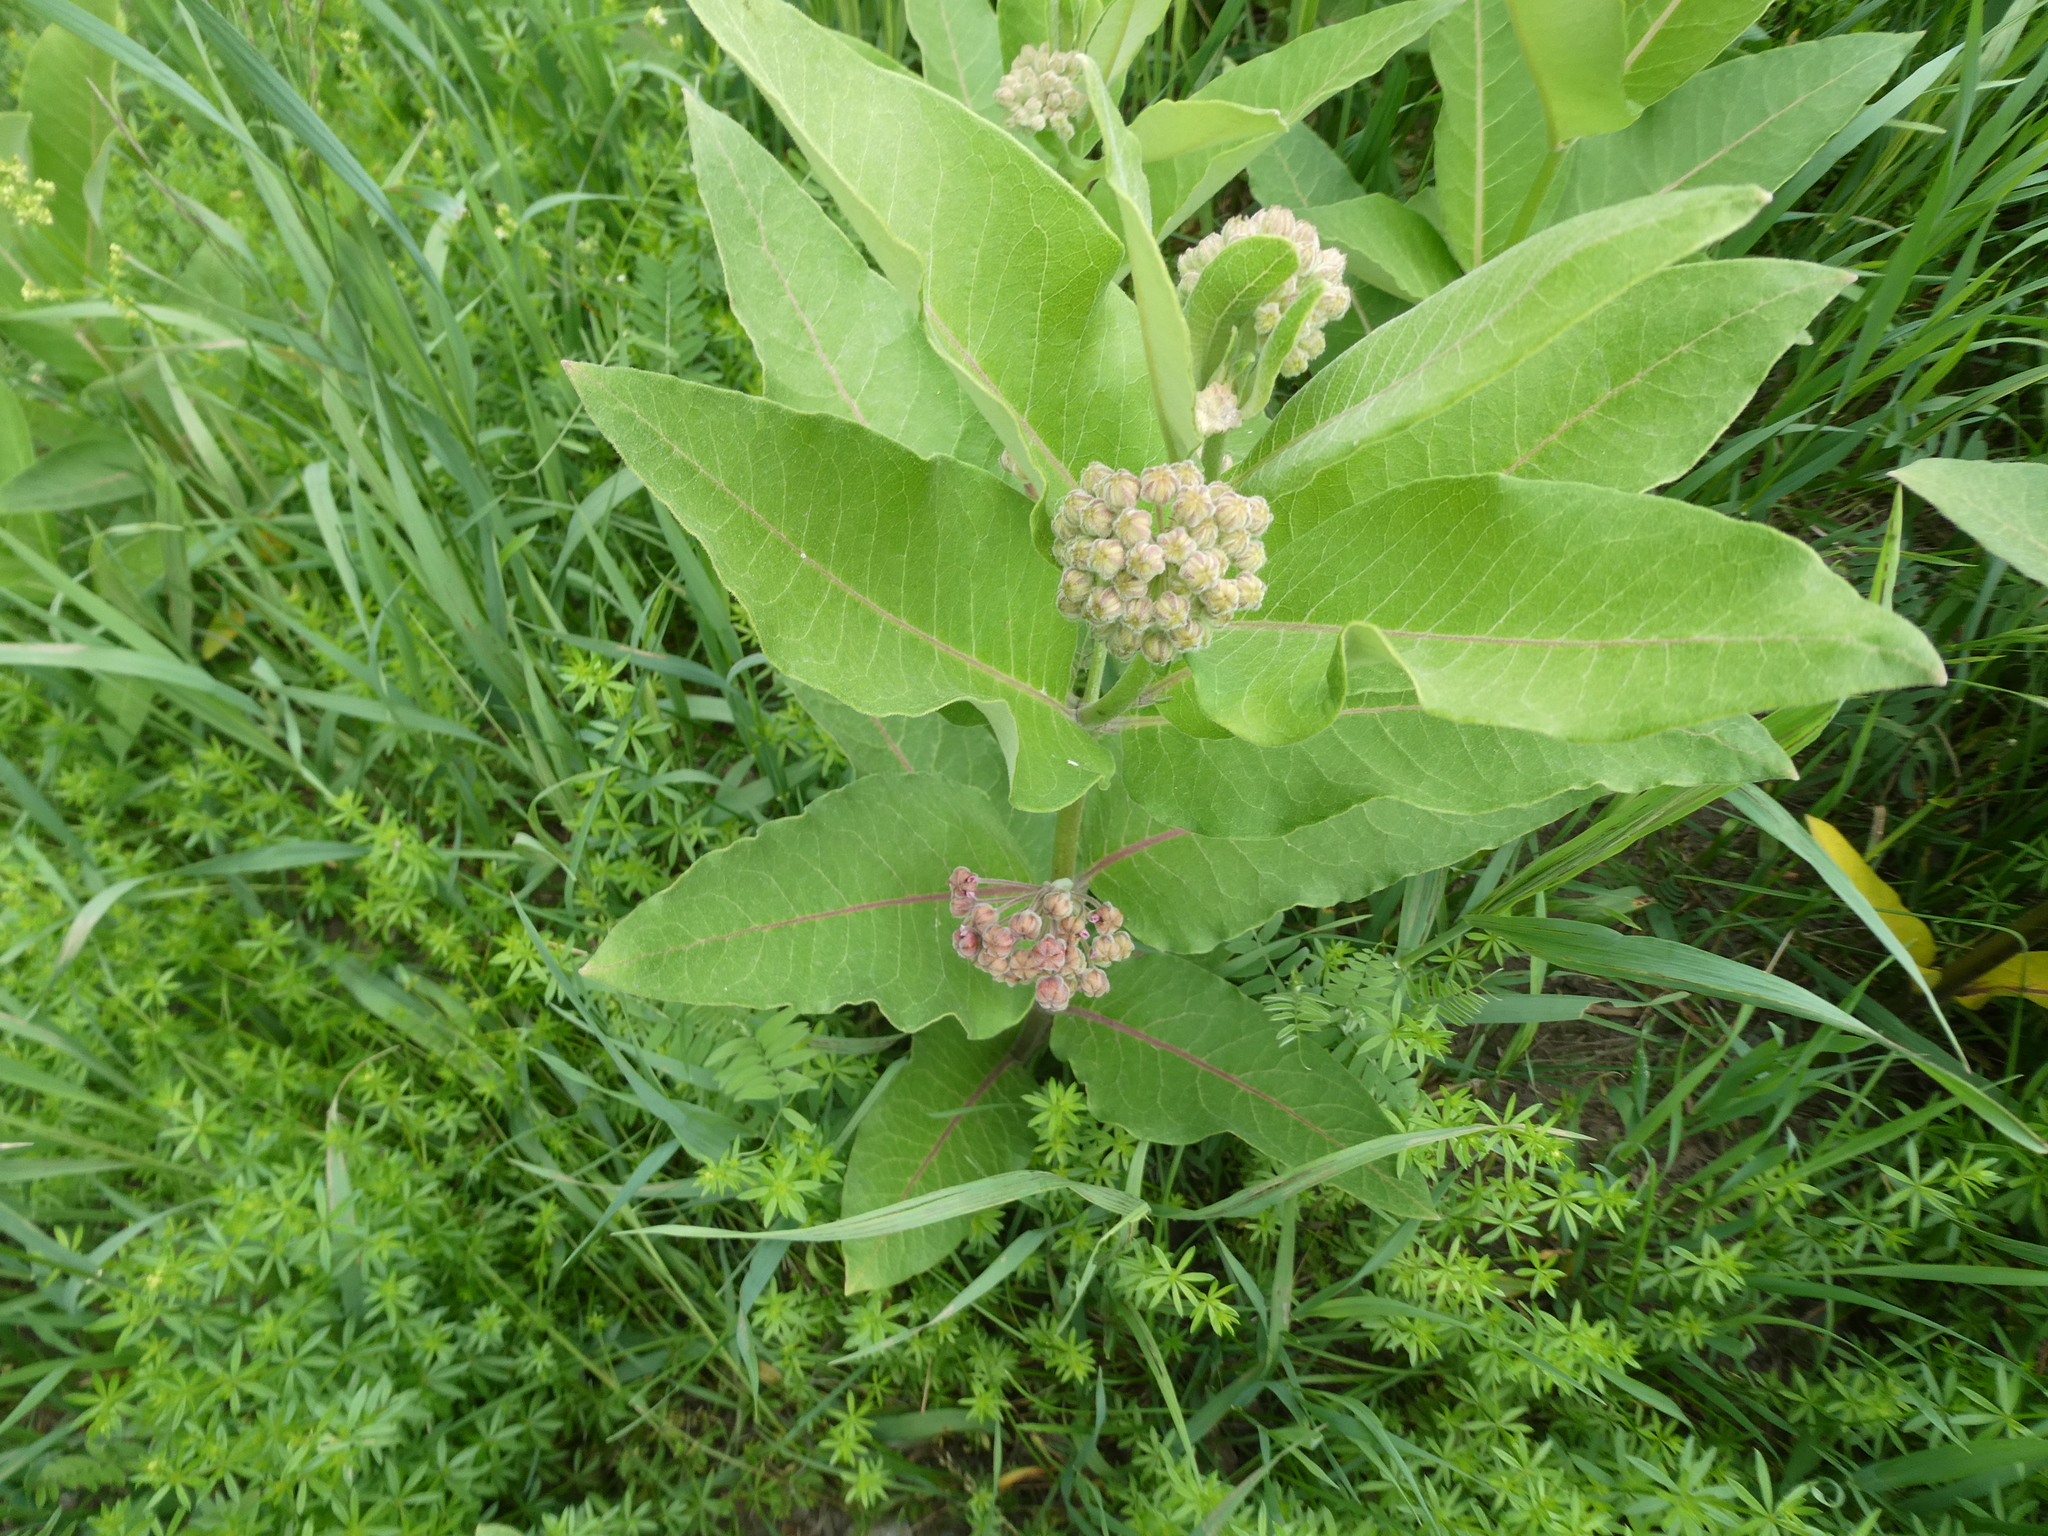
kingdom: Plantae
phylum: Tracheophyta
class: Magnoliopsida
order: Gentianales
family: Apocynaceae
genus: Asclepias
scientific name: Asclepias syriaca
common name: Common milkweed
